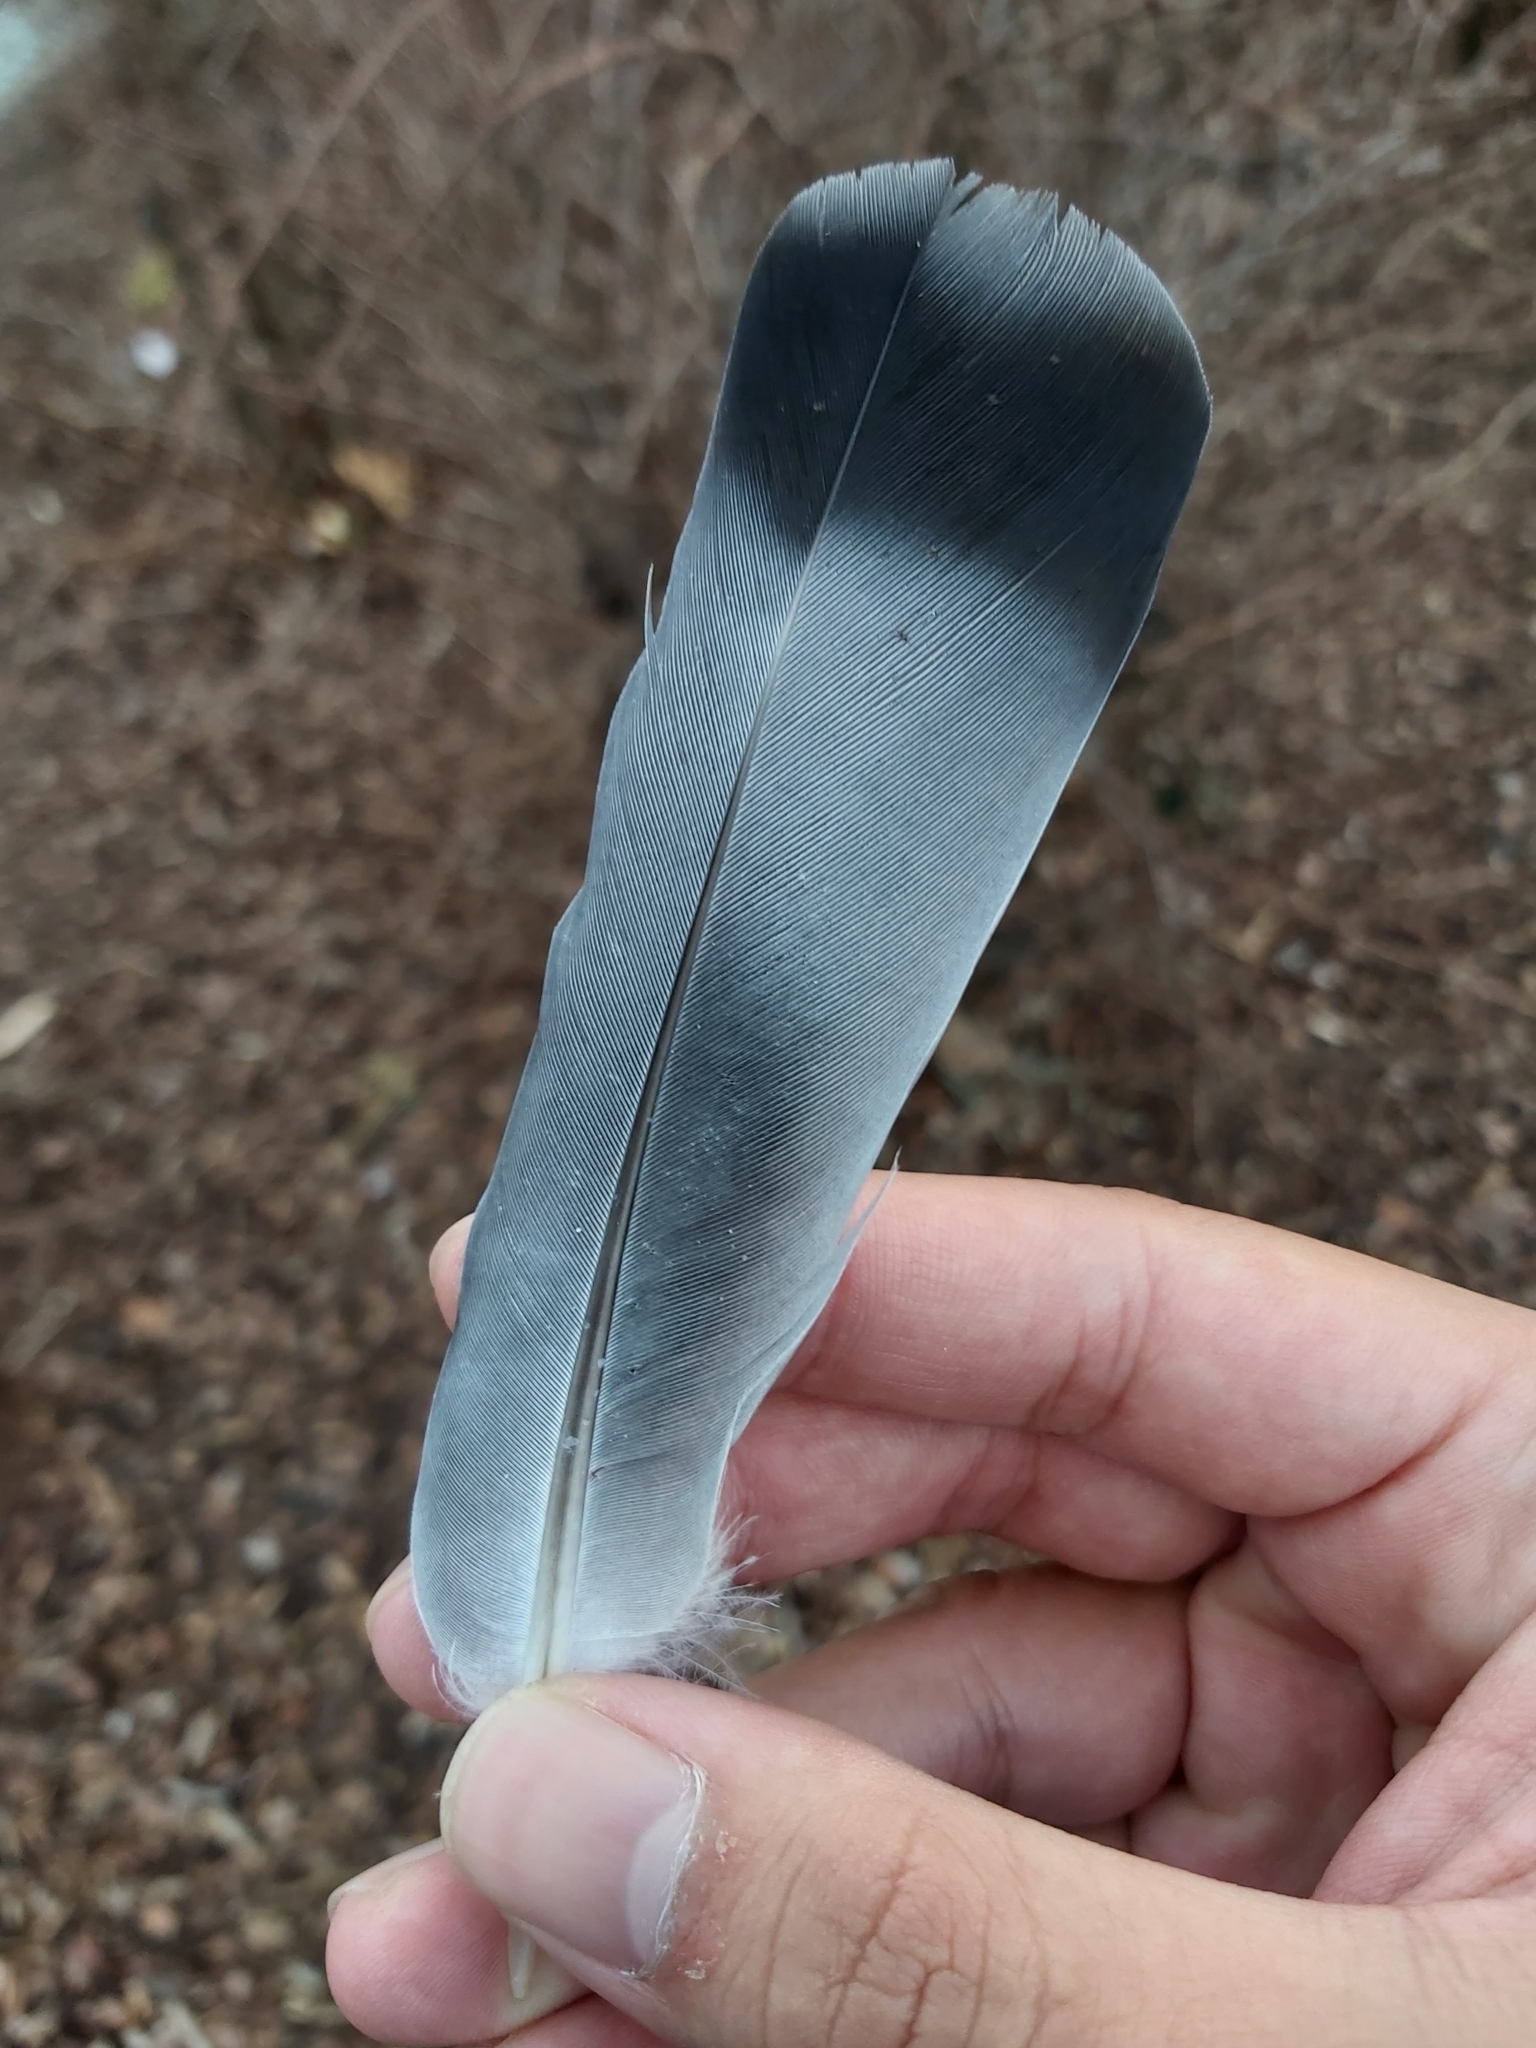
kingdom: Animalia
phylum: Chordata
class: Aves
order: Columbiformes
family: Columbidae
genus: Columba
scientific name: Columba livia
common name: Rock pigeon
